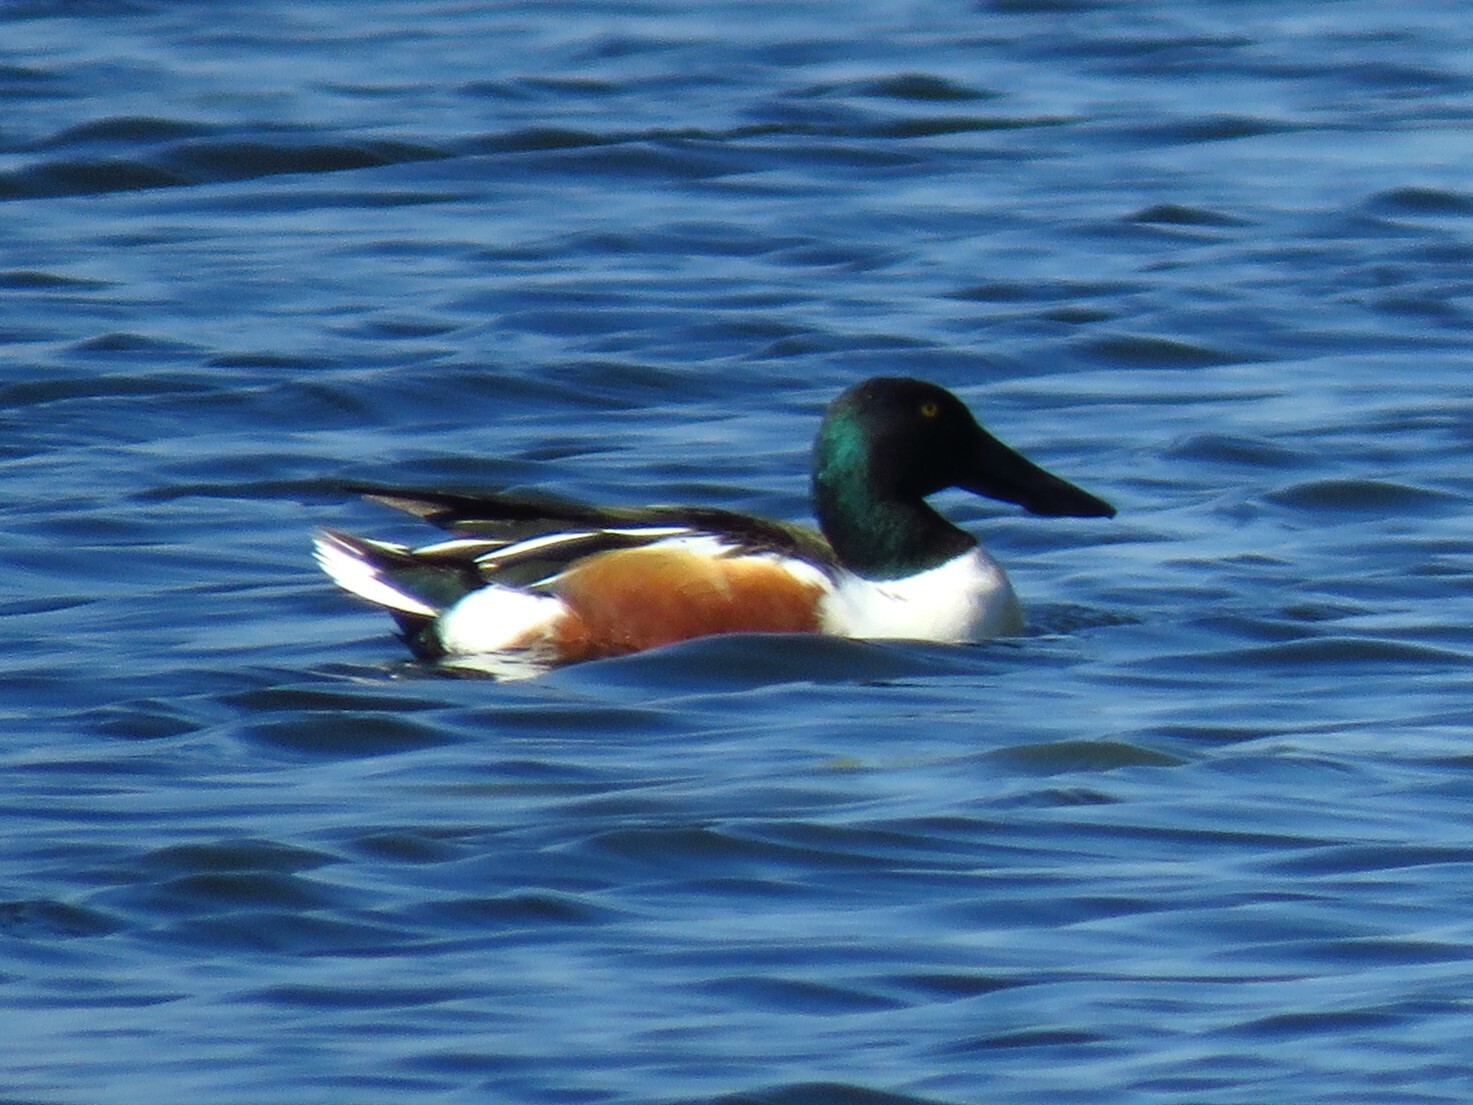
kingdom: Animalia
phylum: Chordata
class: Aves
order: Anseriformes
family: Anatidae
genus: Spatula
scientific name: Spatula clypeata
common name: Northern shoveler
